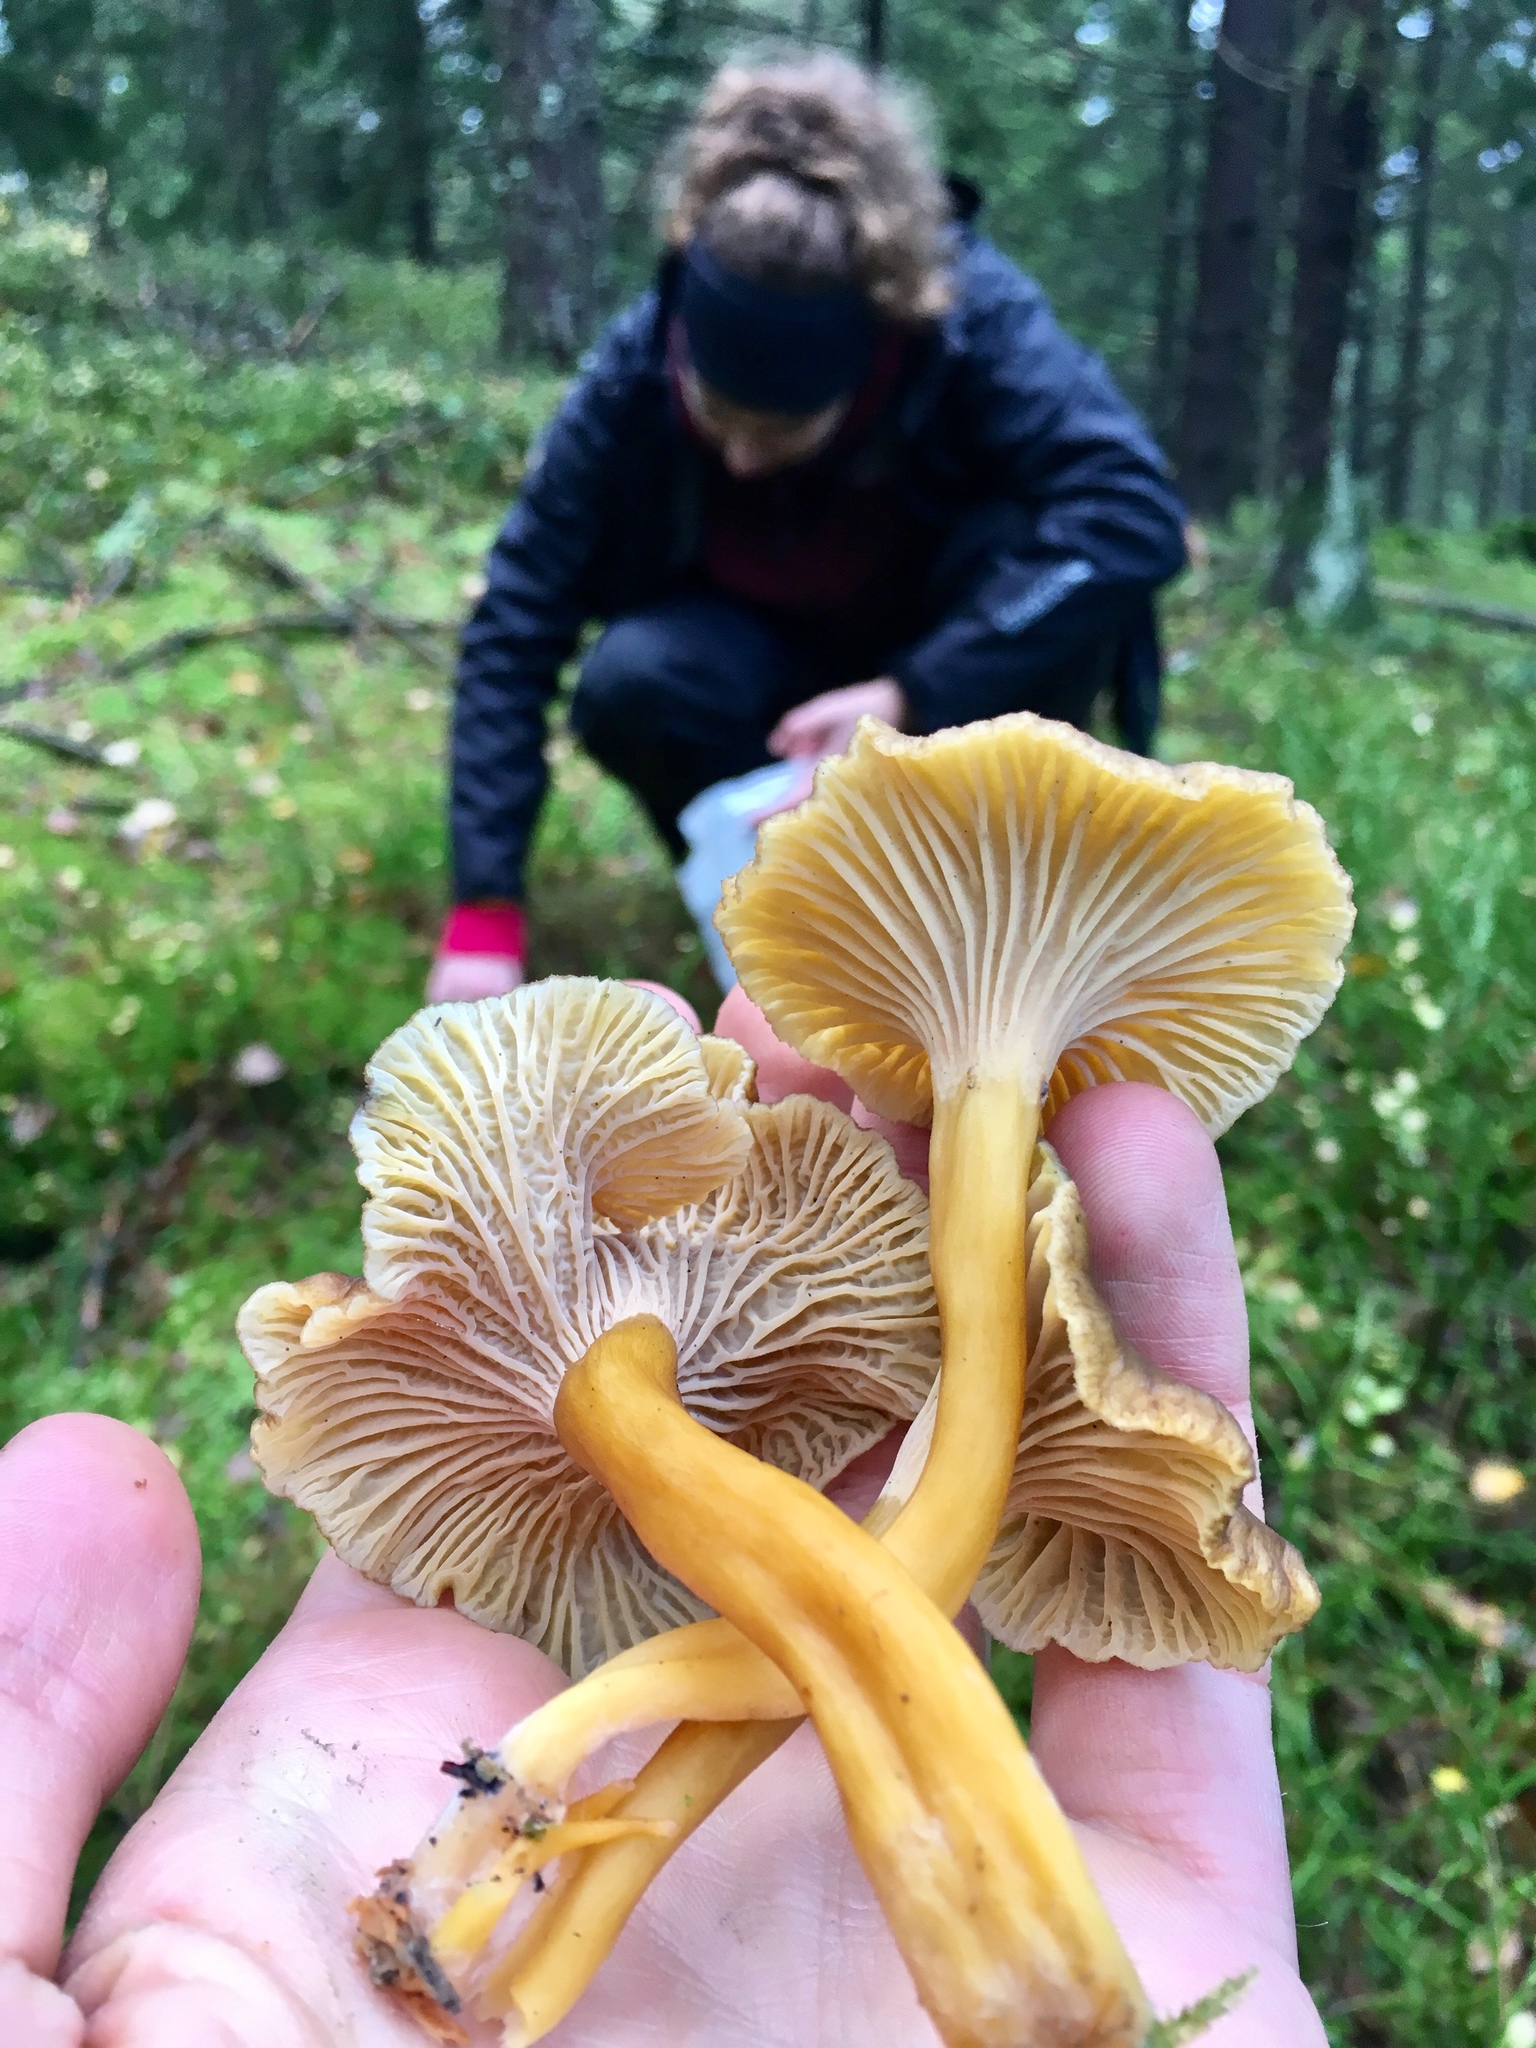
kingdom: Fungi
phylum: Basidiomycota
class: Agaricomycetes
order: Cantharellales
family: Hydnaceae
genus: Craterellus
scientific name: Craterellus tubaeformis
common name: Yellowfoot
